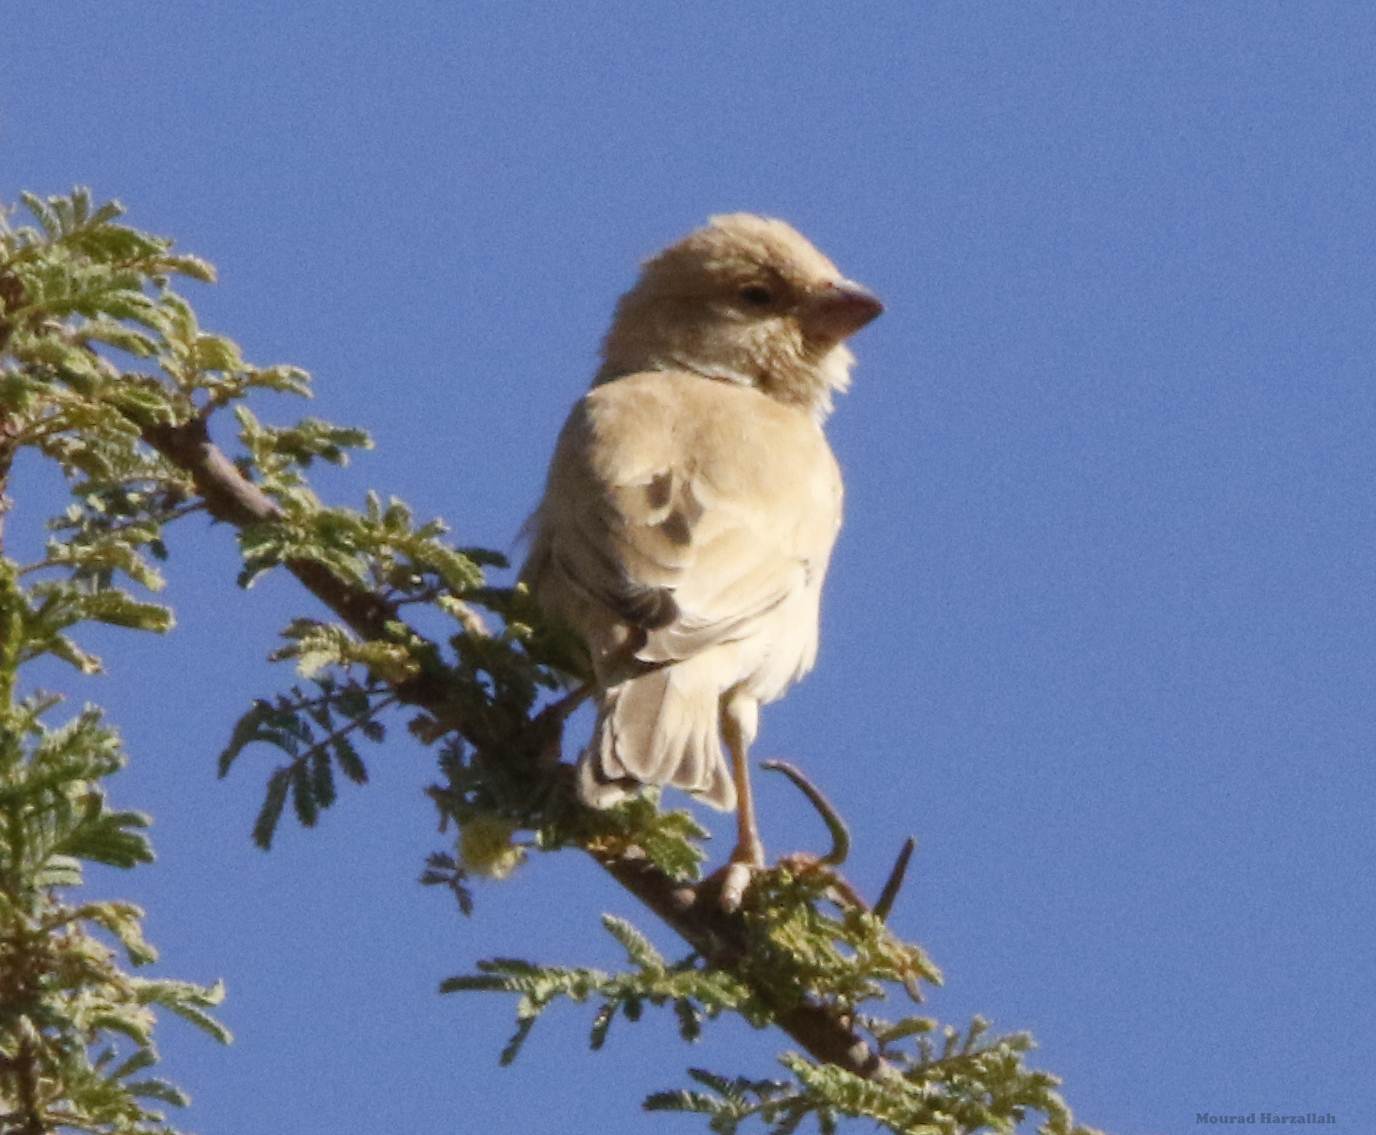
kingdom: Animalia
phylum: Chordata
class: Aves
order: Passeriformes
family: Passeridae
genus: Passer
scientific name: Passer simplex
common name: Desert sparrow
